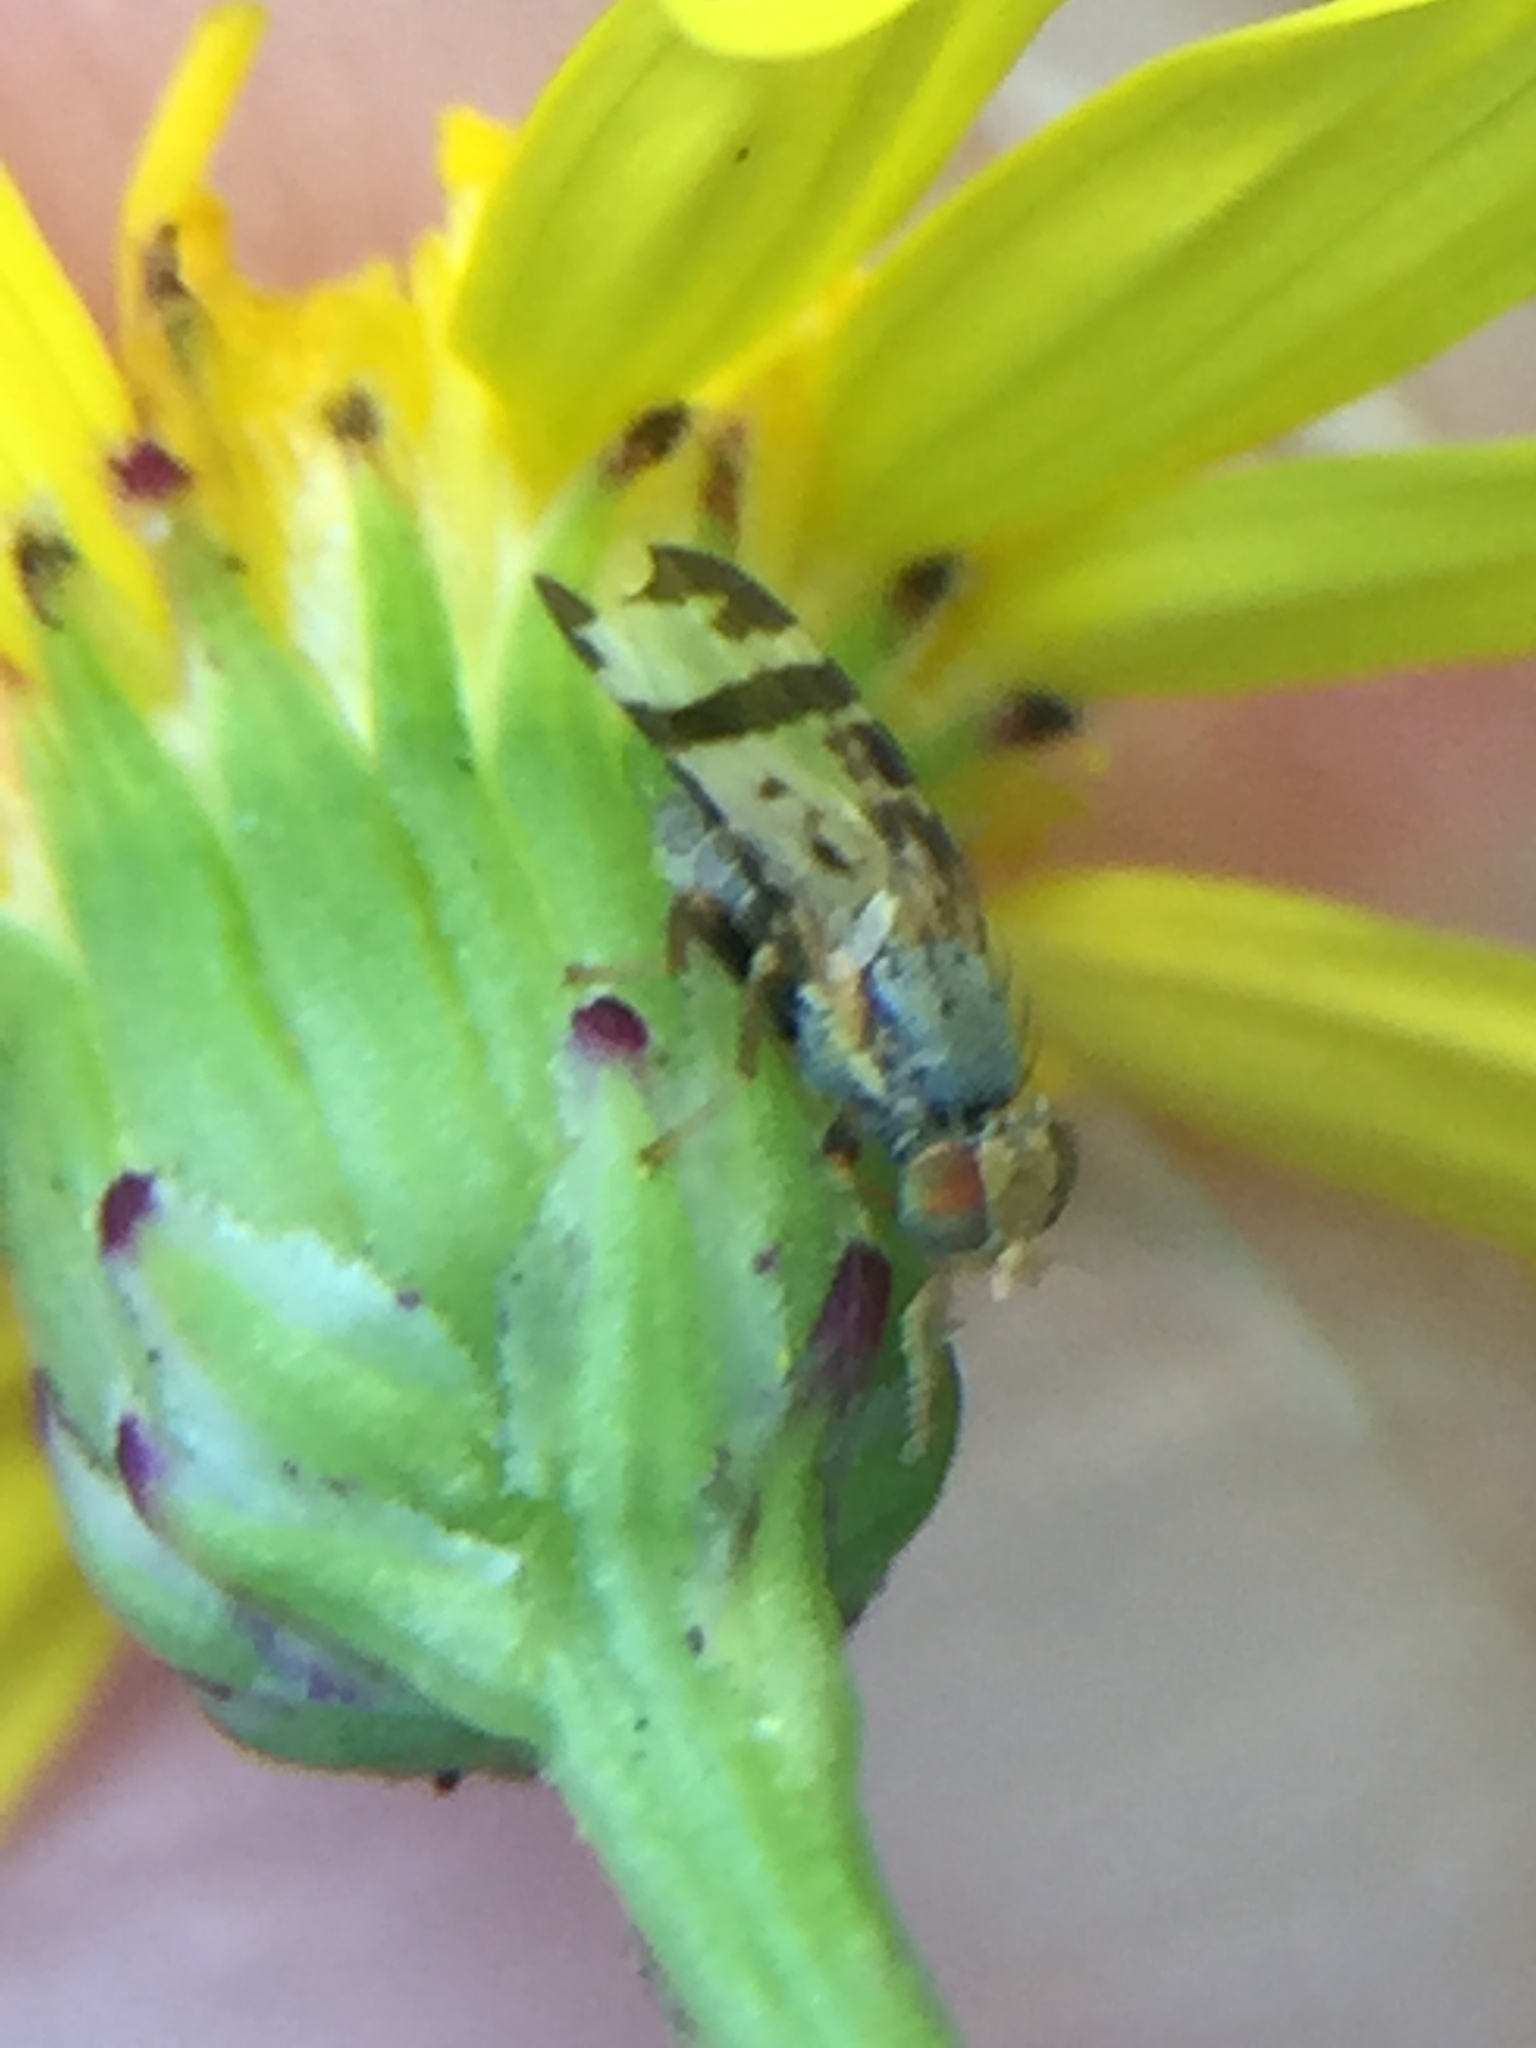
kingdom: Animalia
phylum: Arthropoda
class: Insecta
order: Diptera
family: Tephritidae
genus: Sphenella
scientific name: Sphenella ruficeps
